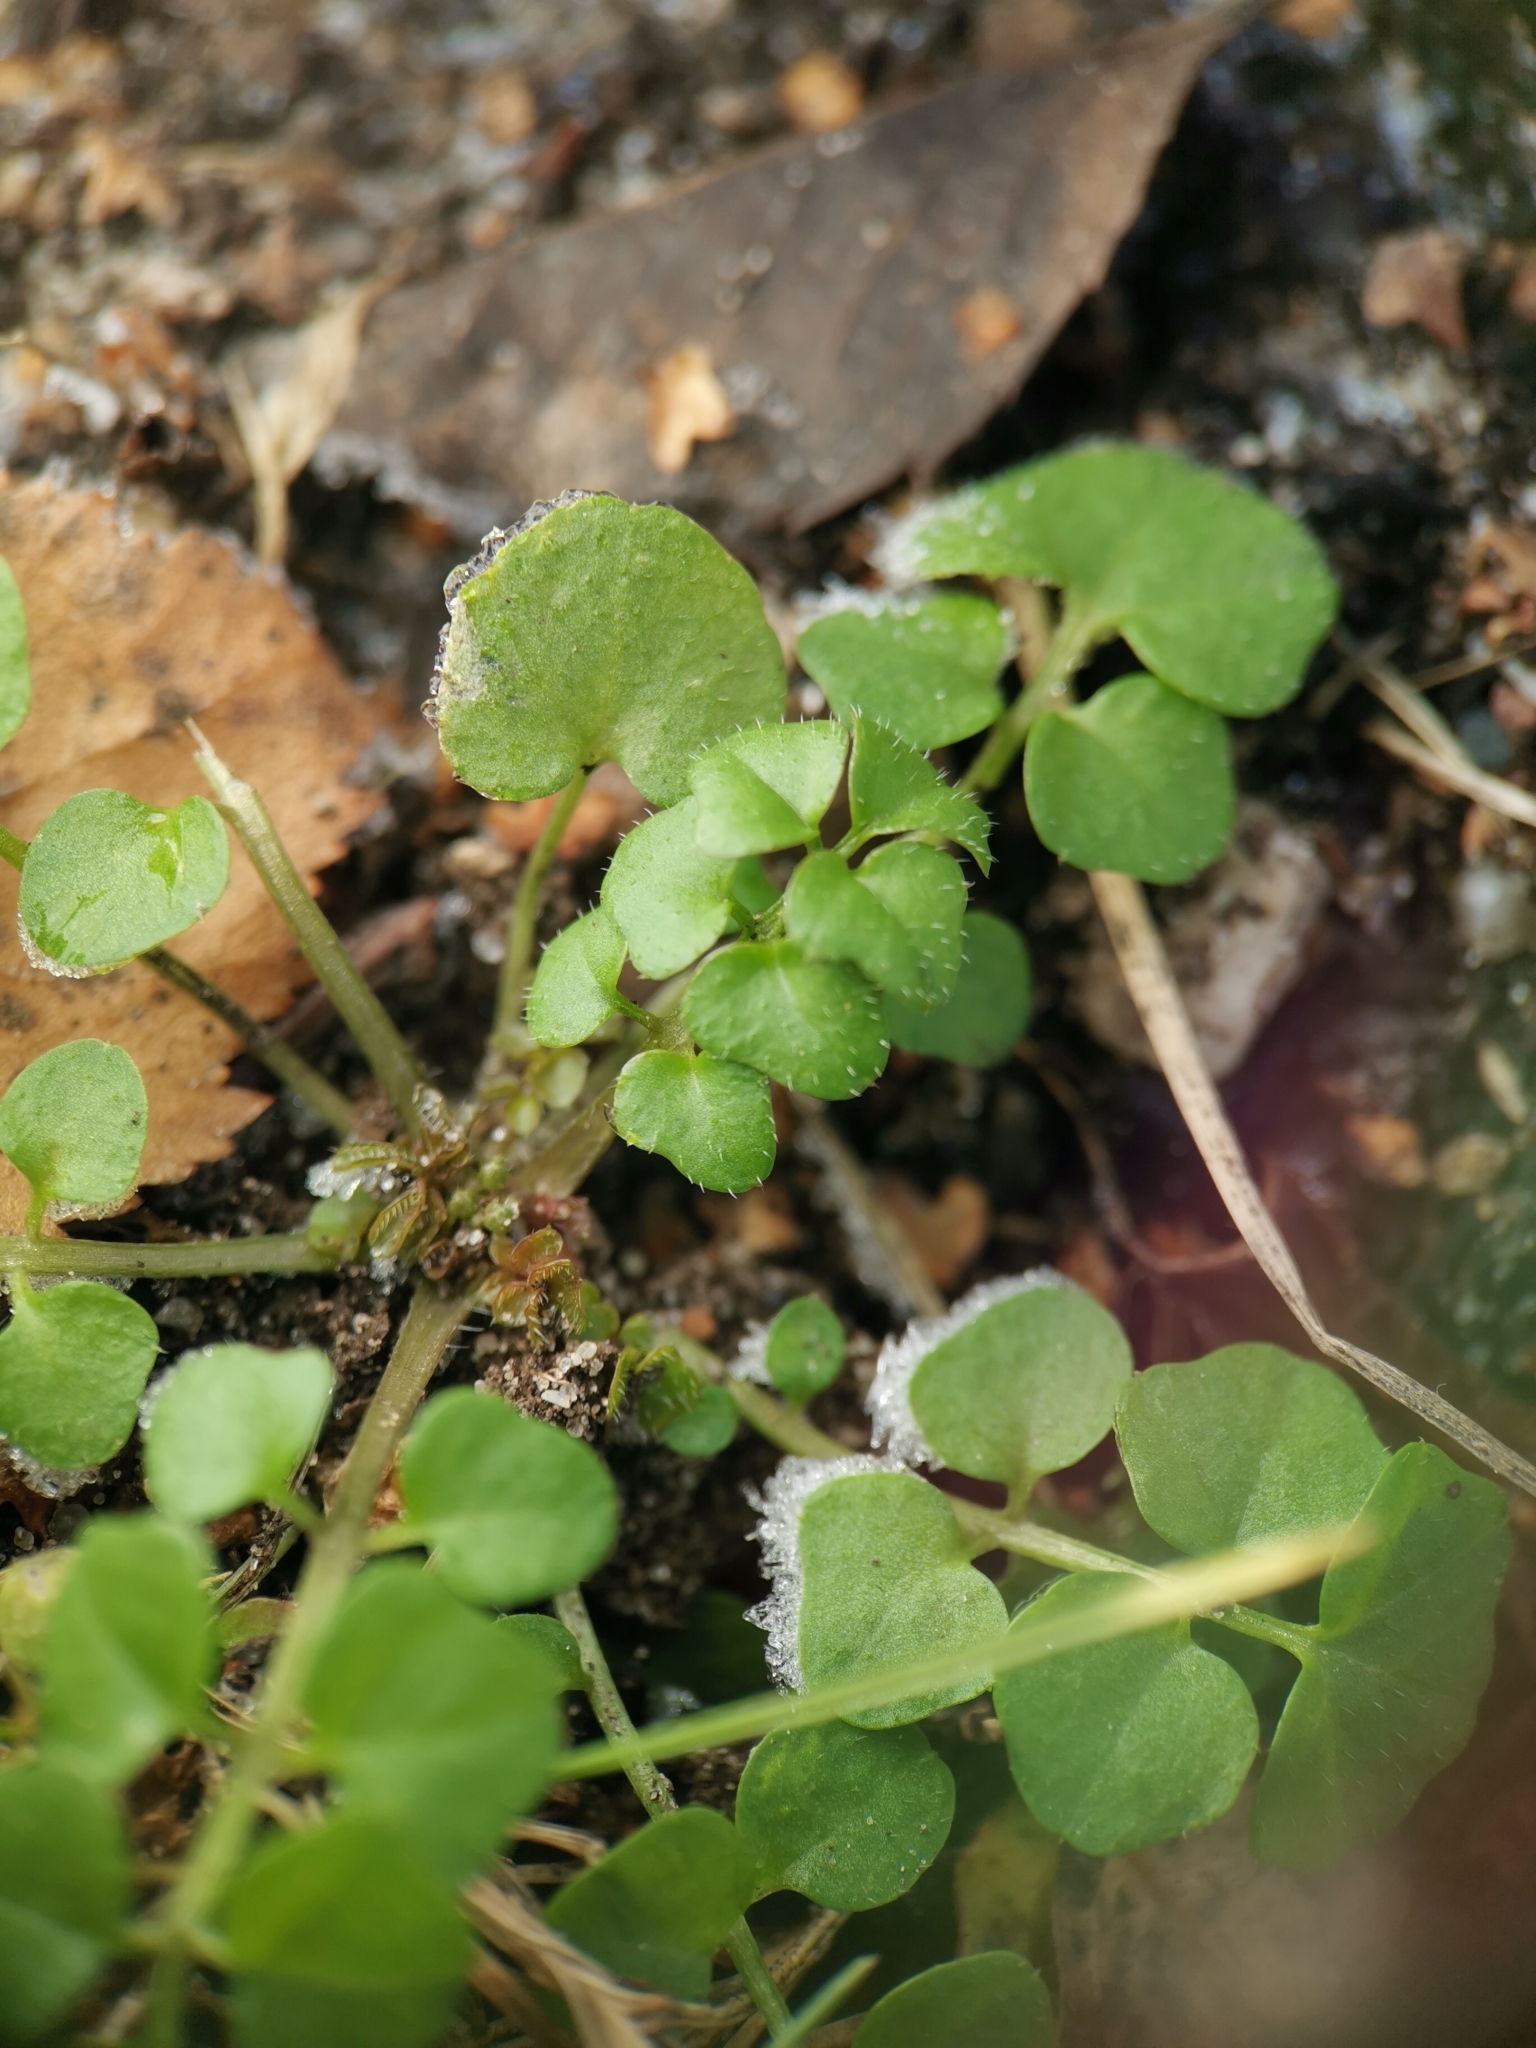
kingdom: Plantae
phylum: Tracheophyta
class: Magnoliopsida
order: Brassicales
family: Brassicaceae
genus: Cardamine
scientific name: Cardamine hirsuta
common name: Hairy bittercress
